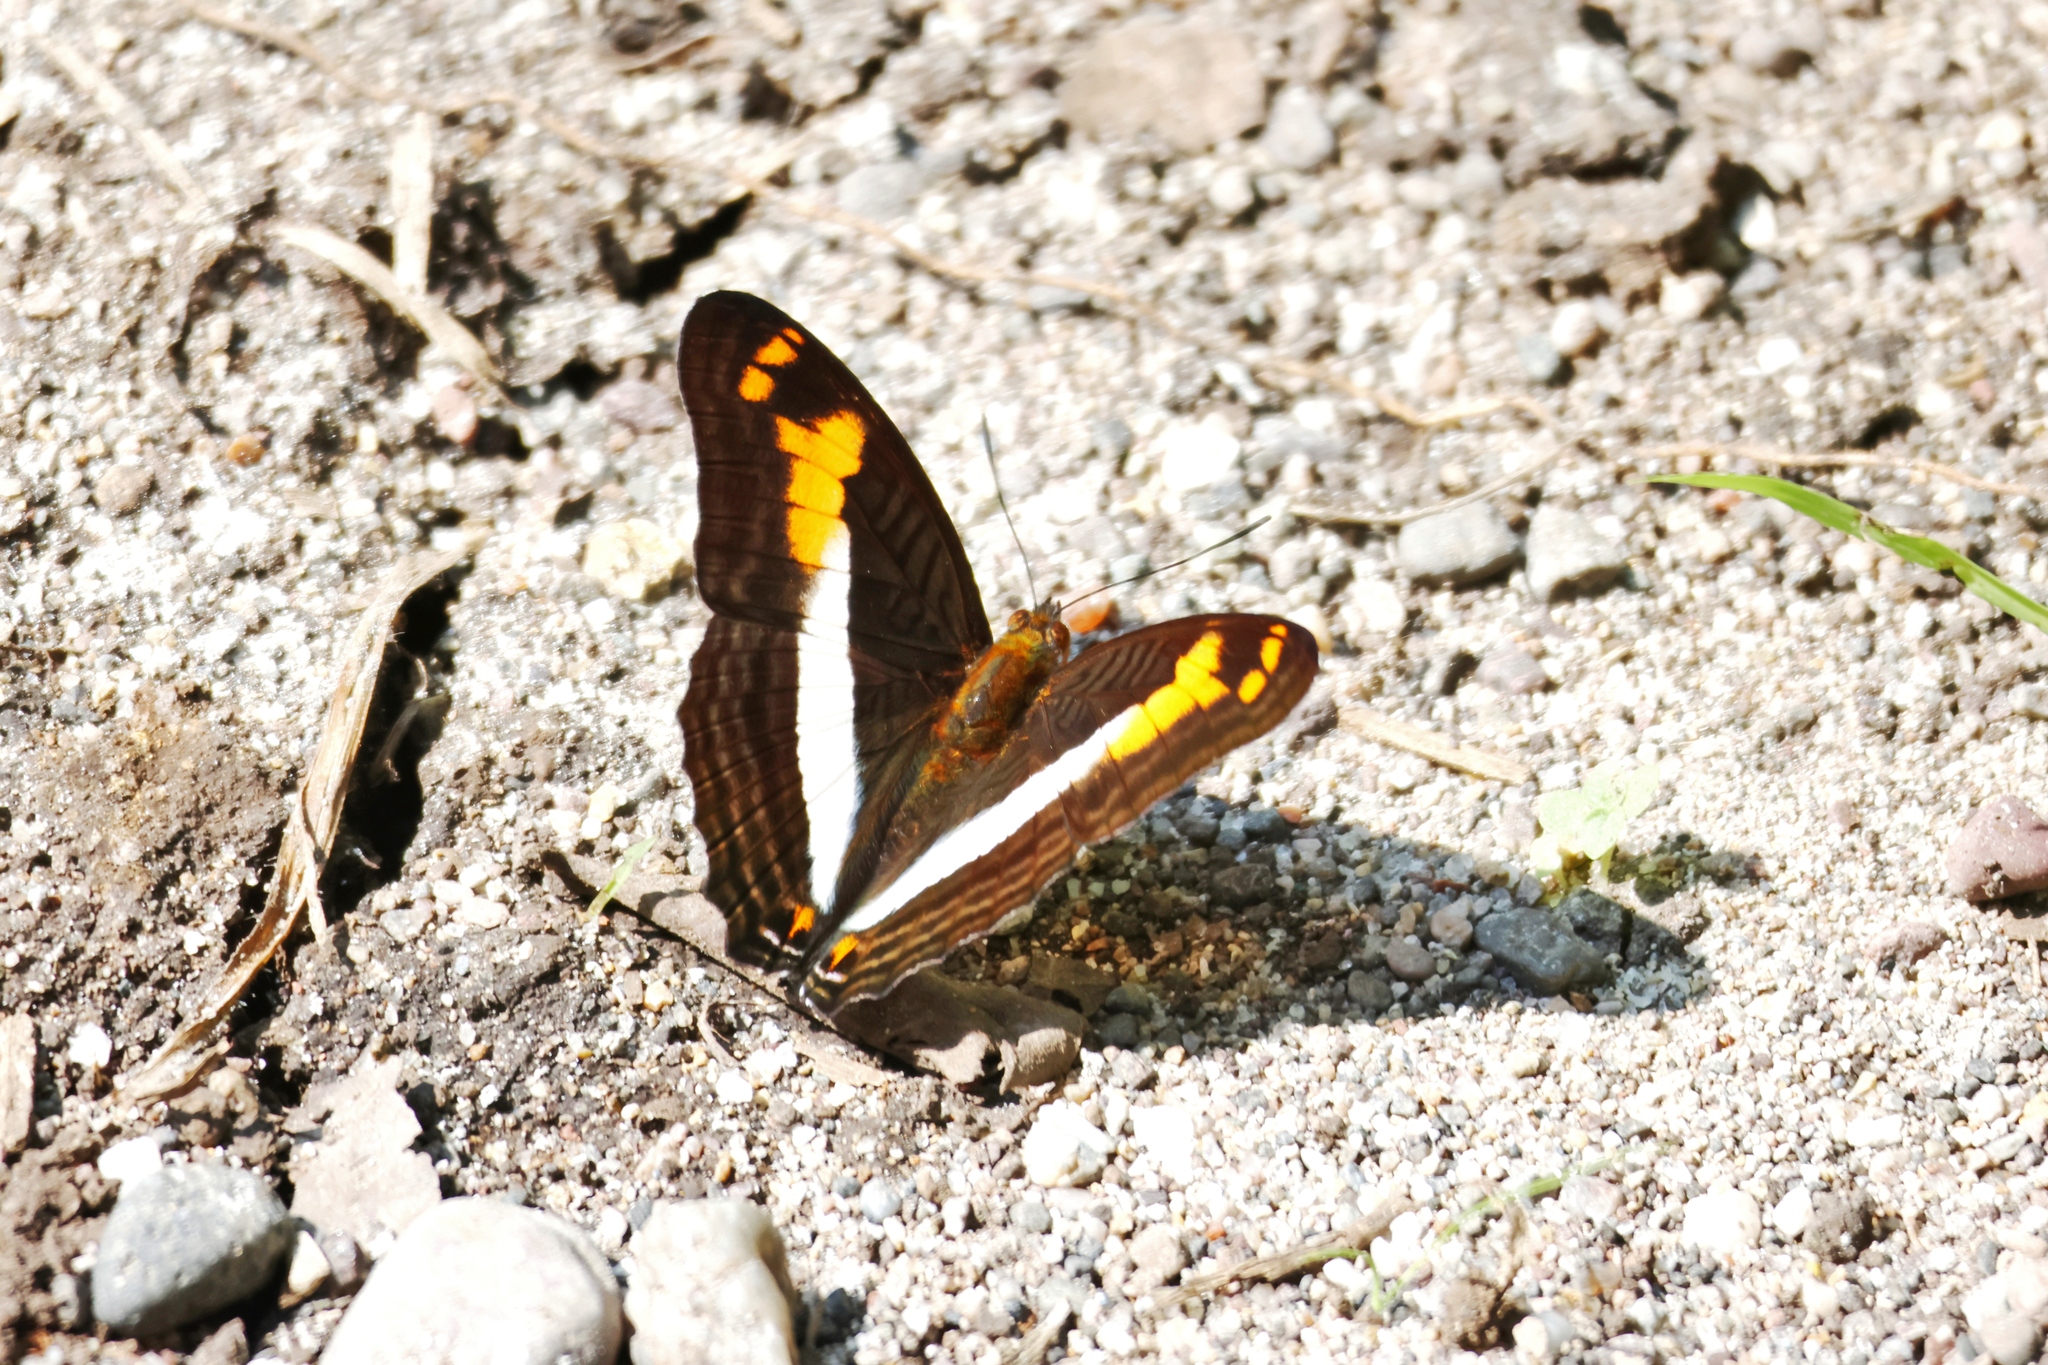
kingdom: Animalia
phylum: Arthropoda
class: Insecta
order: Lepidoptera
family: Nymphalidae
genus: Limenitis
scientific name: Limenitis boeotia
